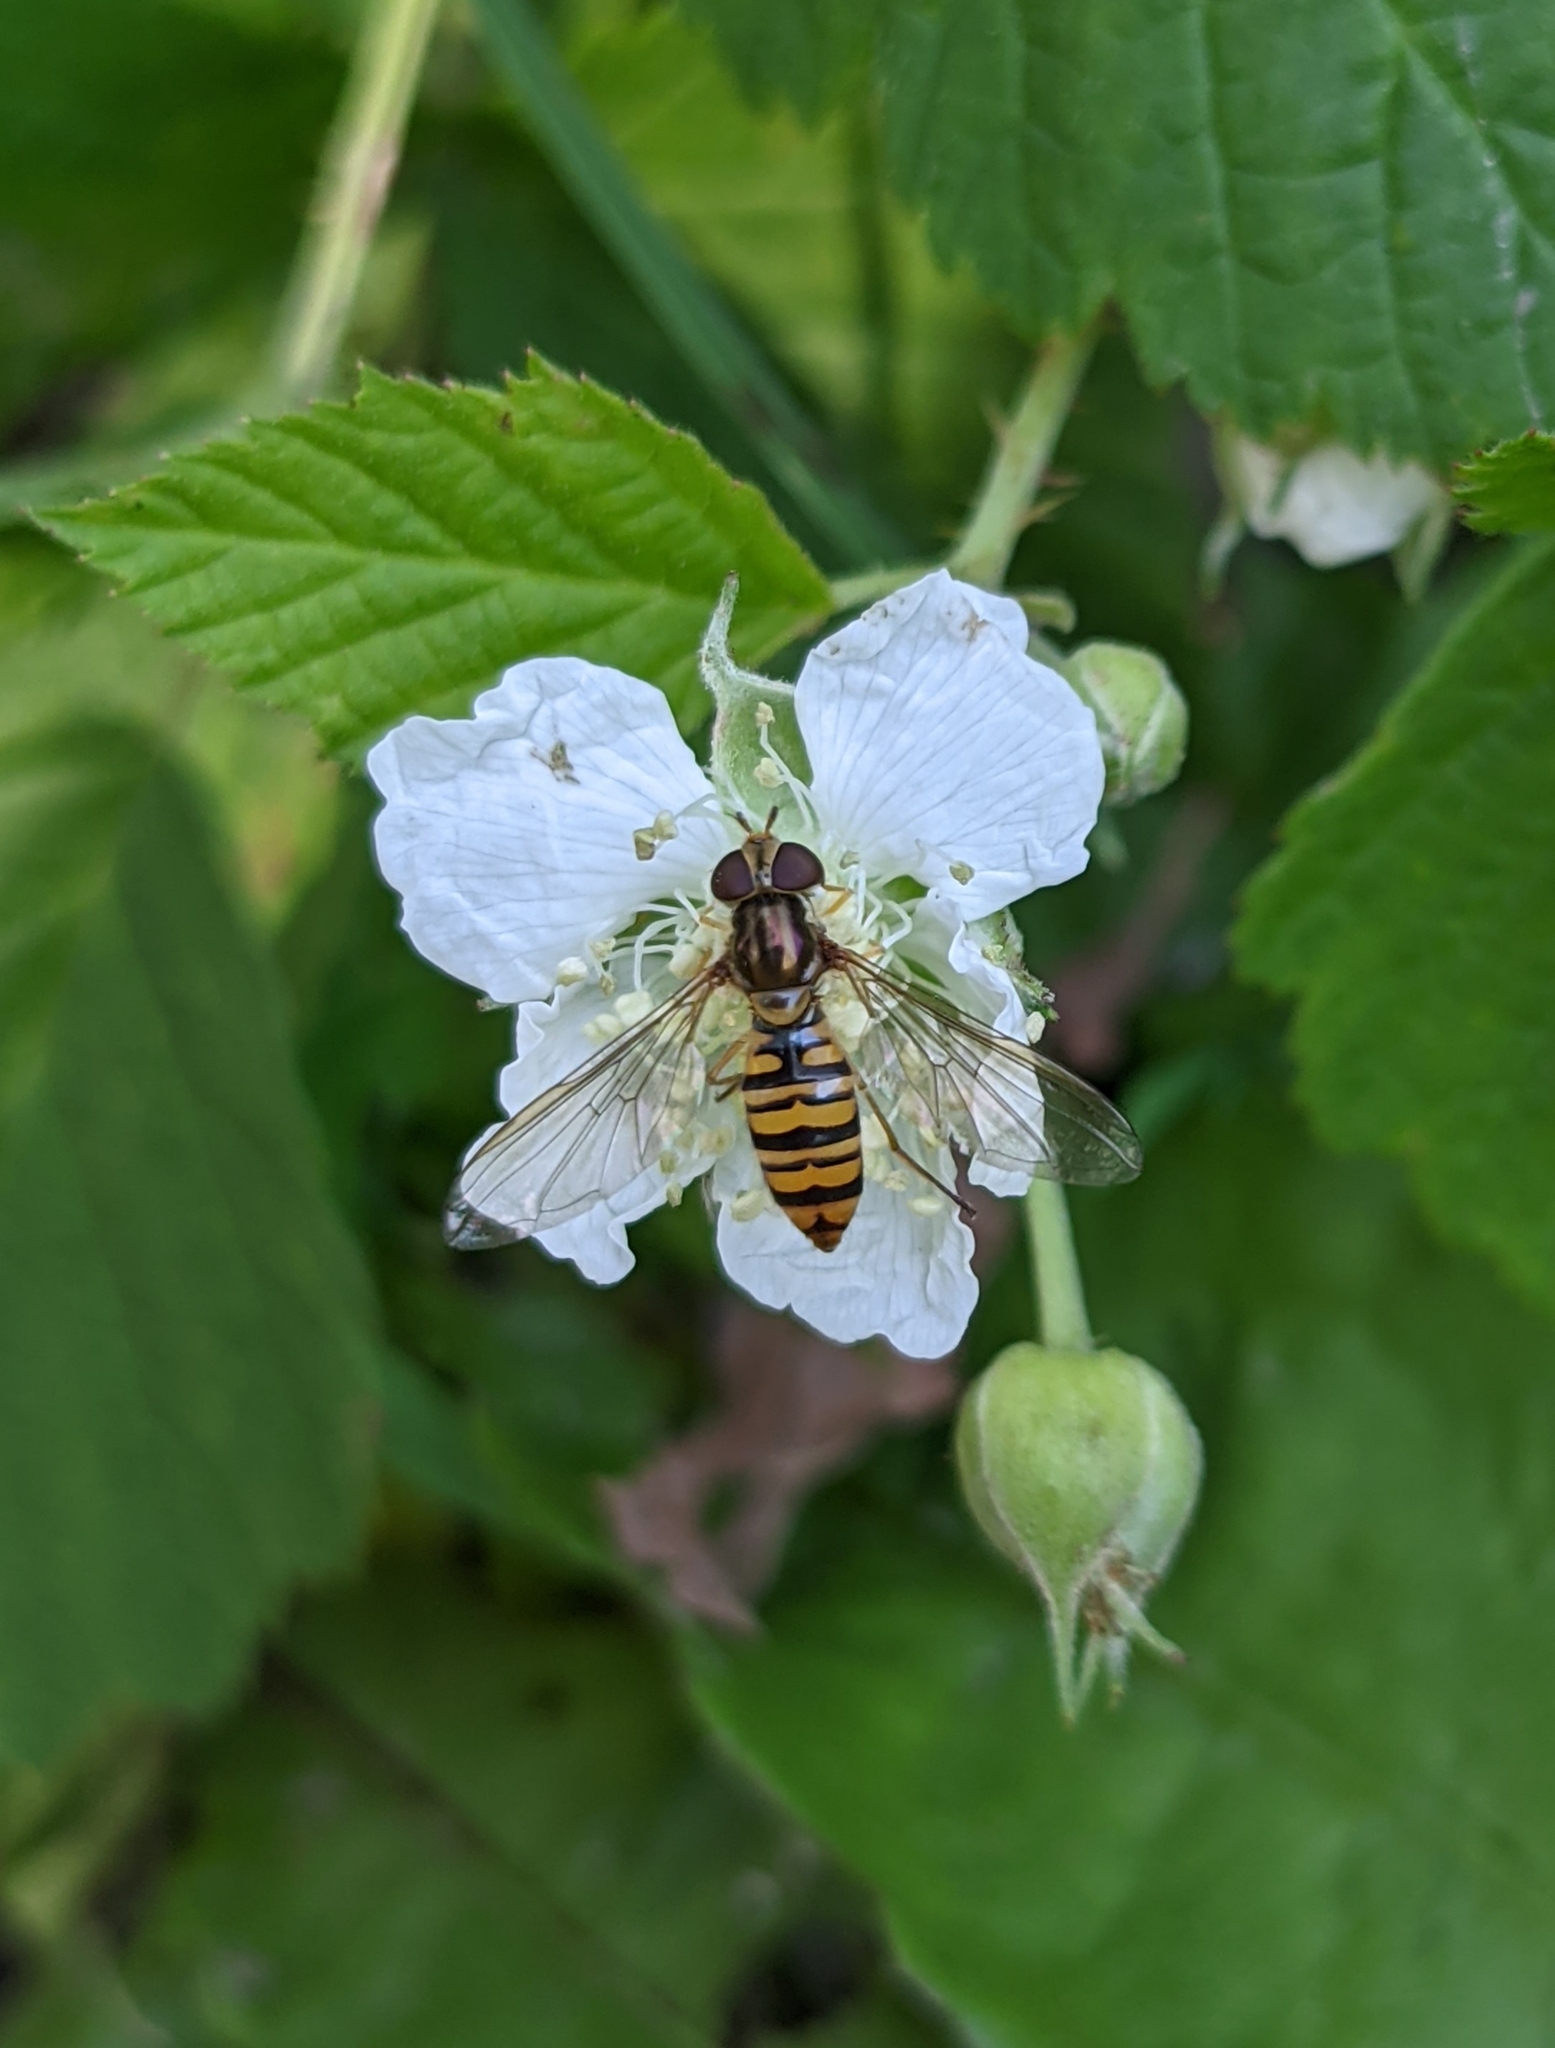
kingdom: Animalia
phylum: Arthropoda
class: Insecta
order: Diptera
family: Syrphidae
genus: Episyrphus
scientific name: Episyrphus balteatus
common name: Marmalade hoverfly
